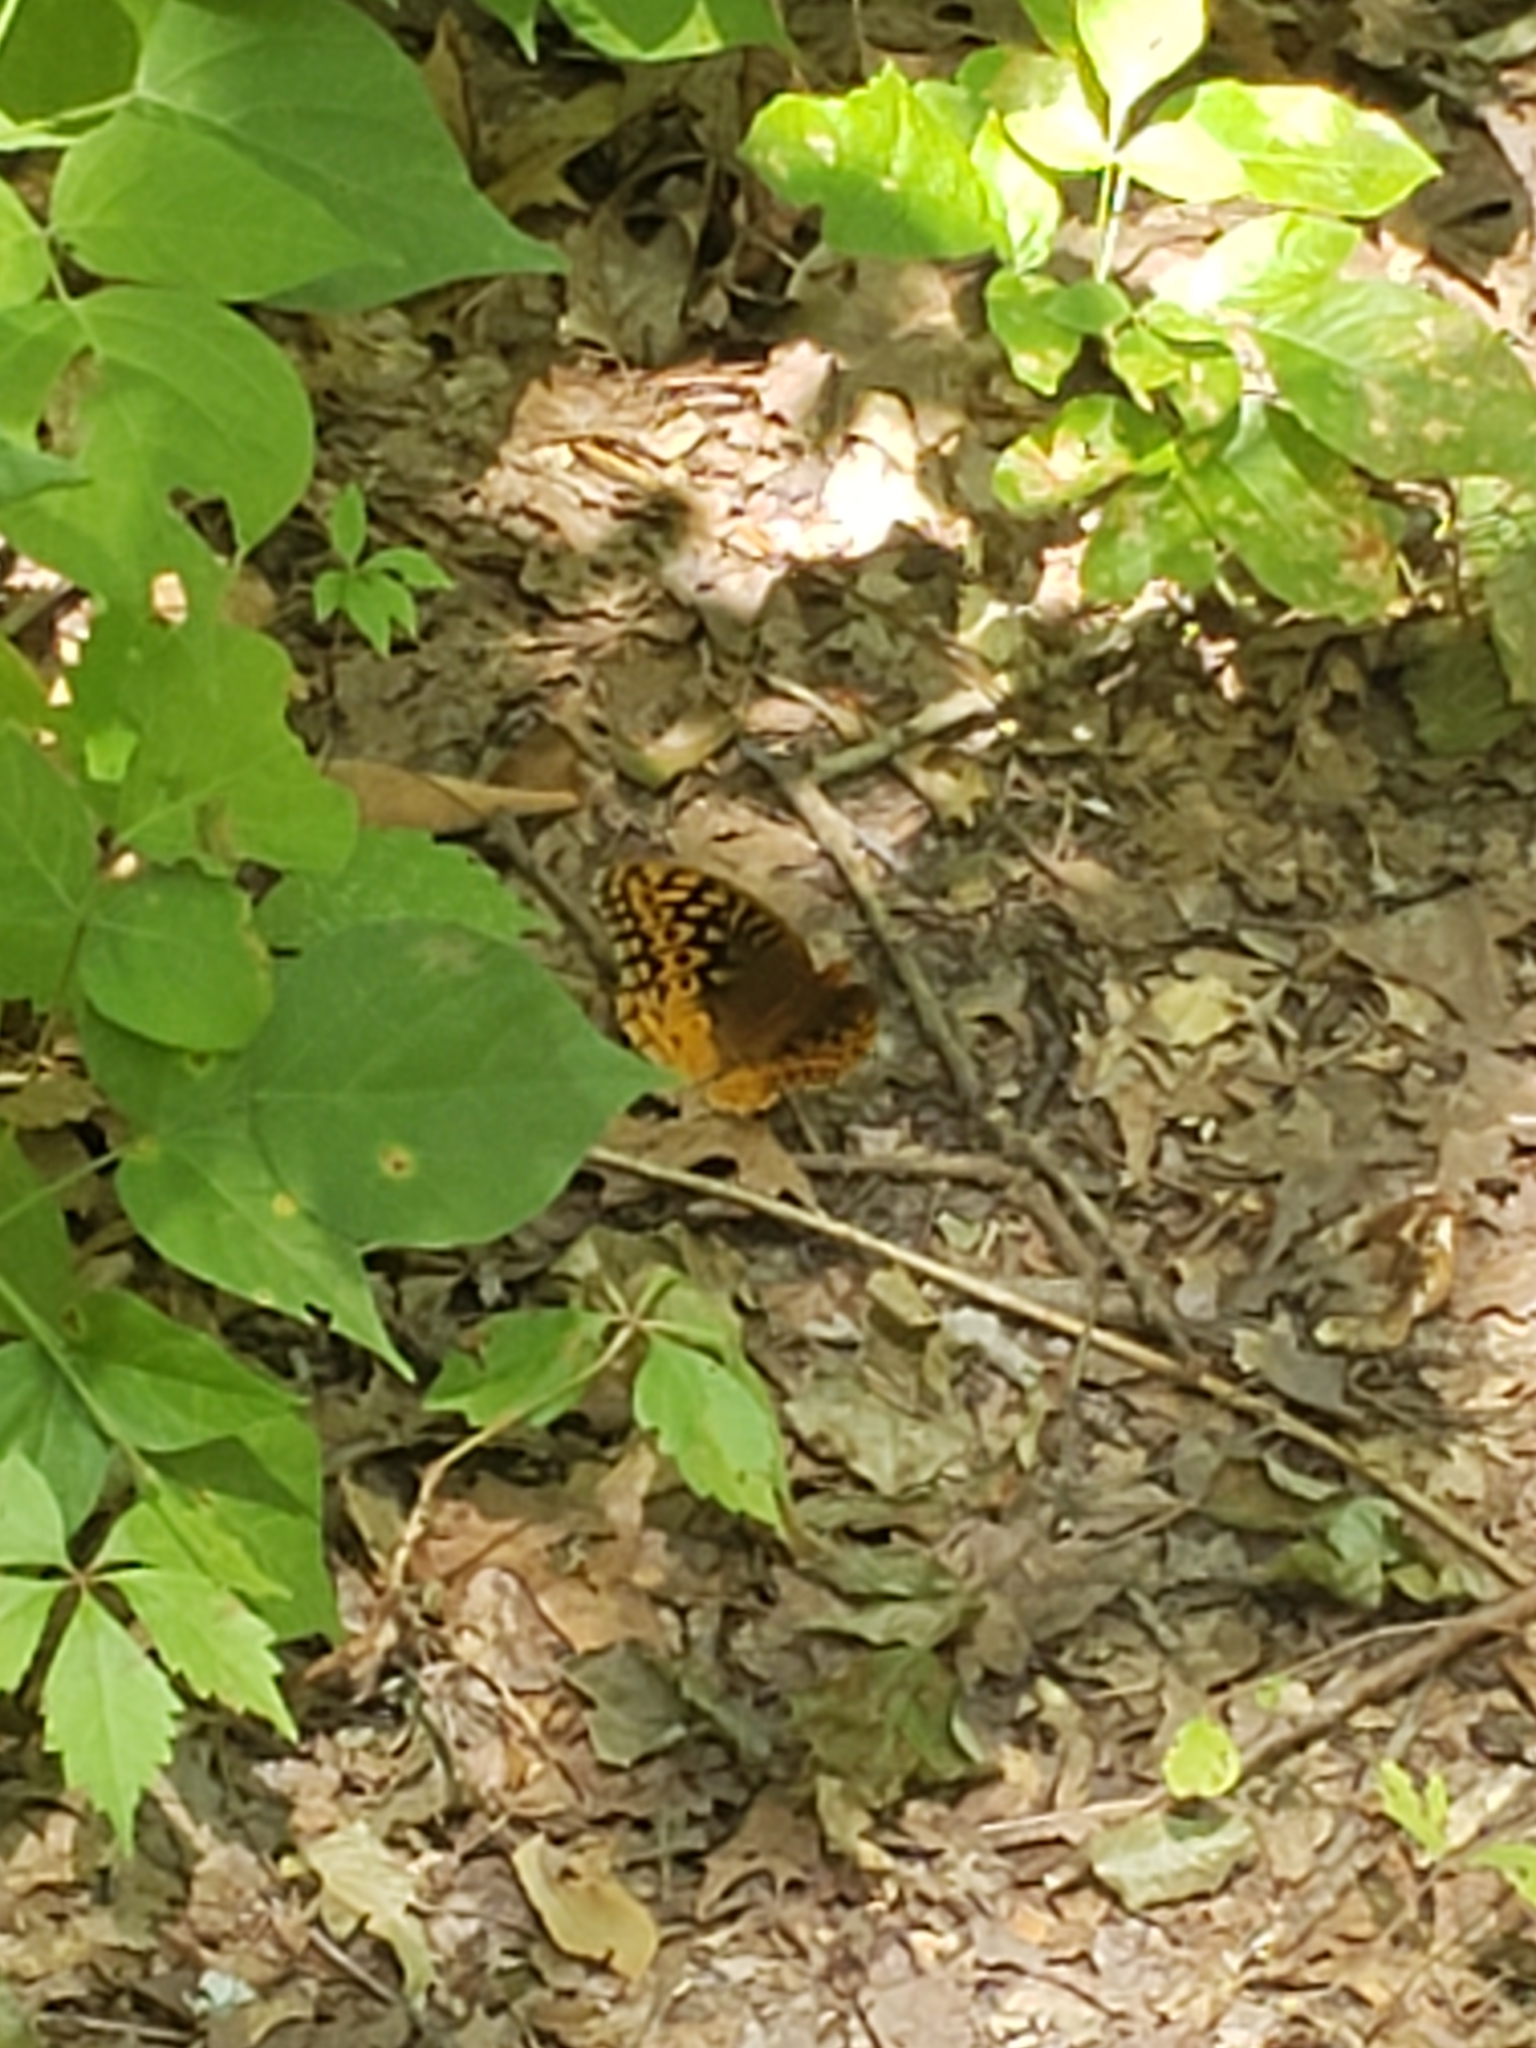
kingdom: Animalia
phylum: Arthropoda
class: Insecta
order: Lepidoptera
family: Nymphalidae
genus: Speyeria
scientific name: Speyeria cybele
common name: Great spangled fritillary
